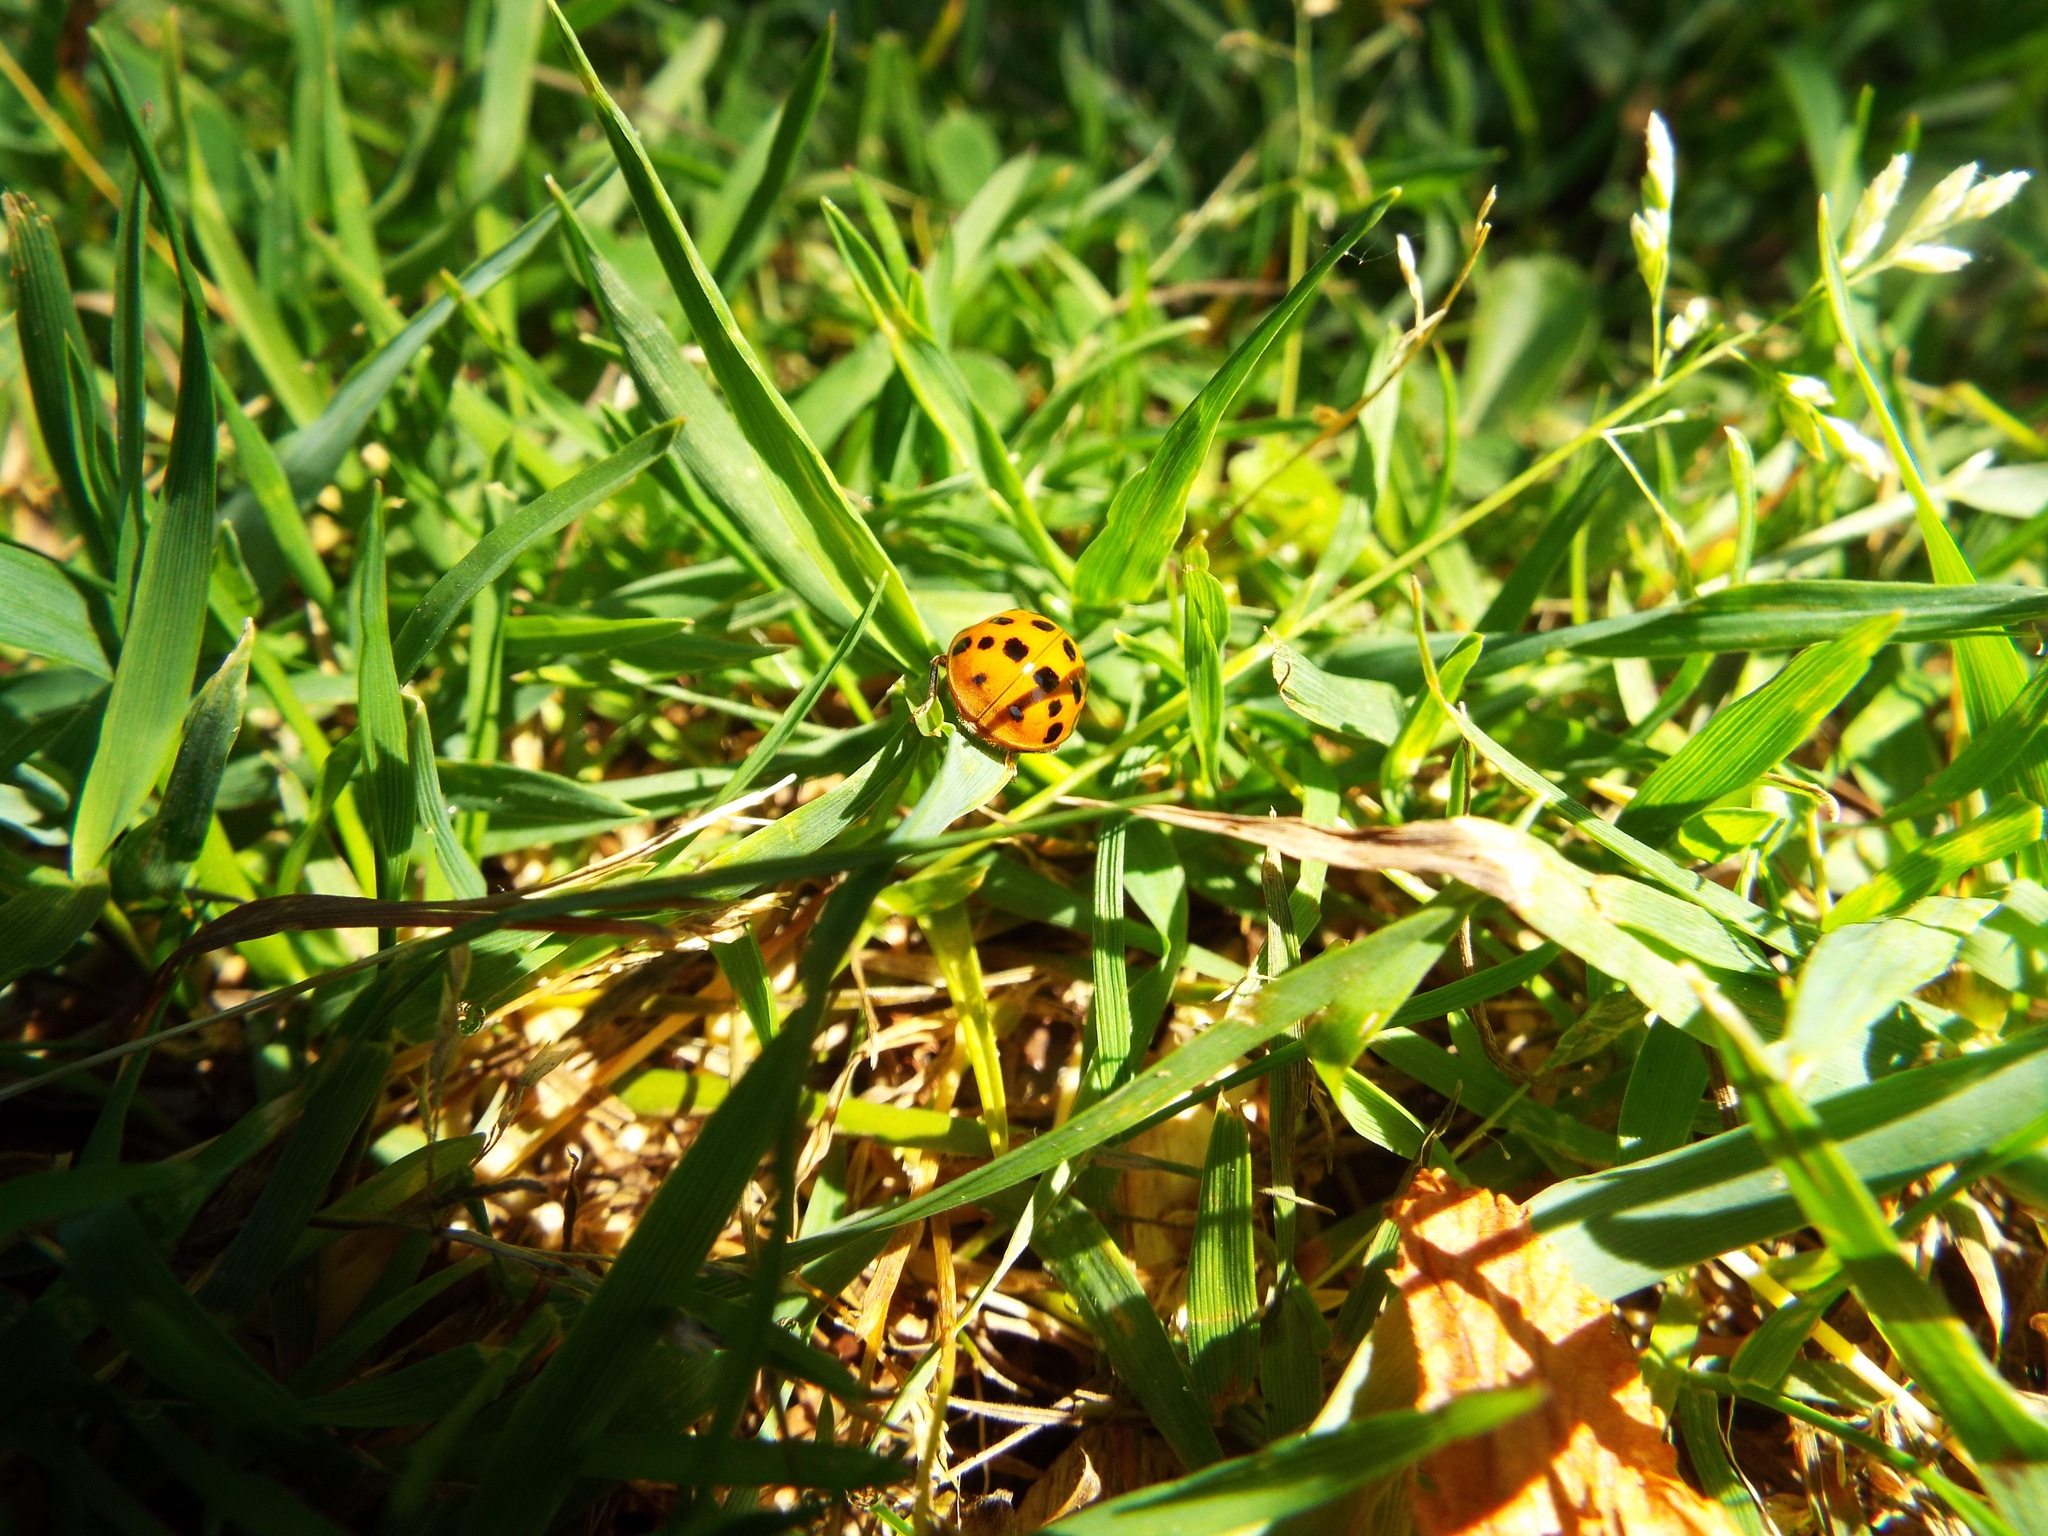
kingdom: Animalia
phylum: Arthropoda
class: Insecta
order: Coleoptera
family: Coccinellidae
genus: Harmonia
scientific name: Harmonia axyridis
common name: Harlequin ladybird
